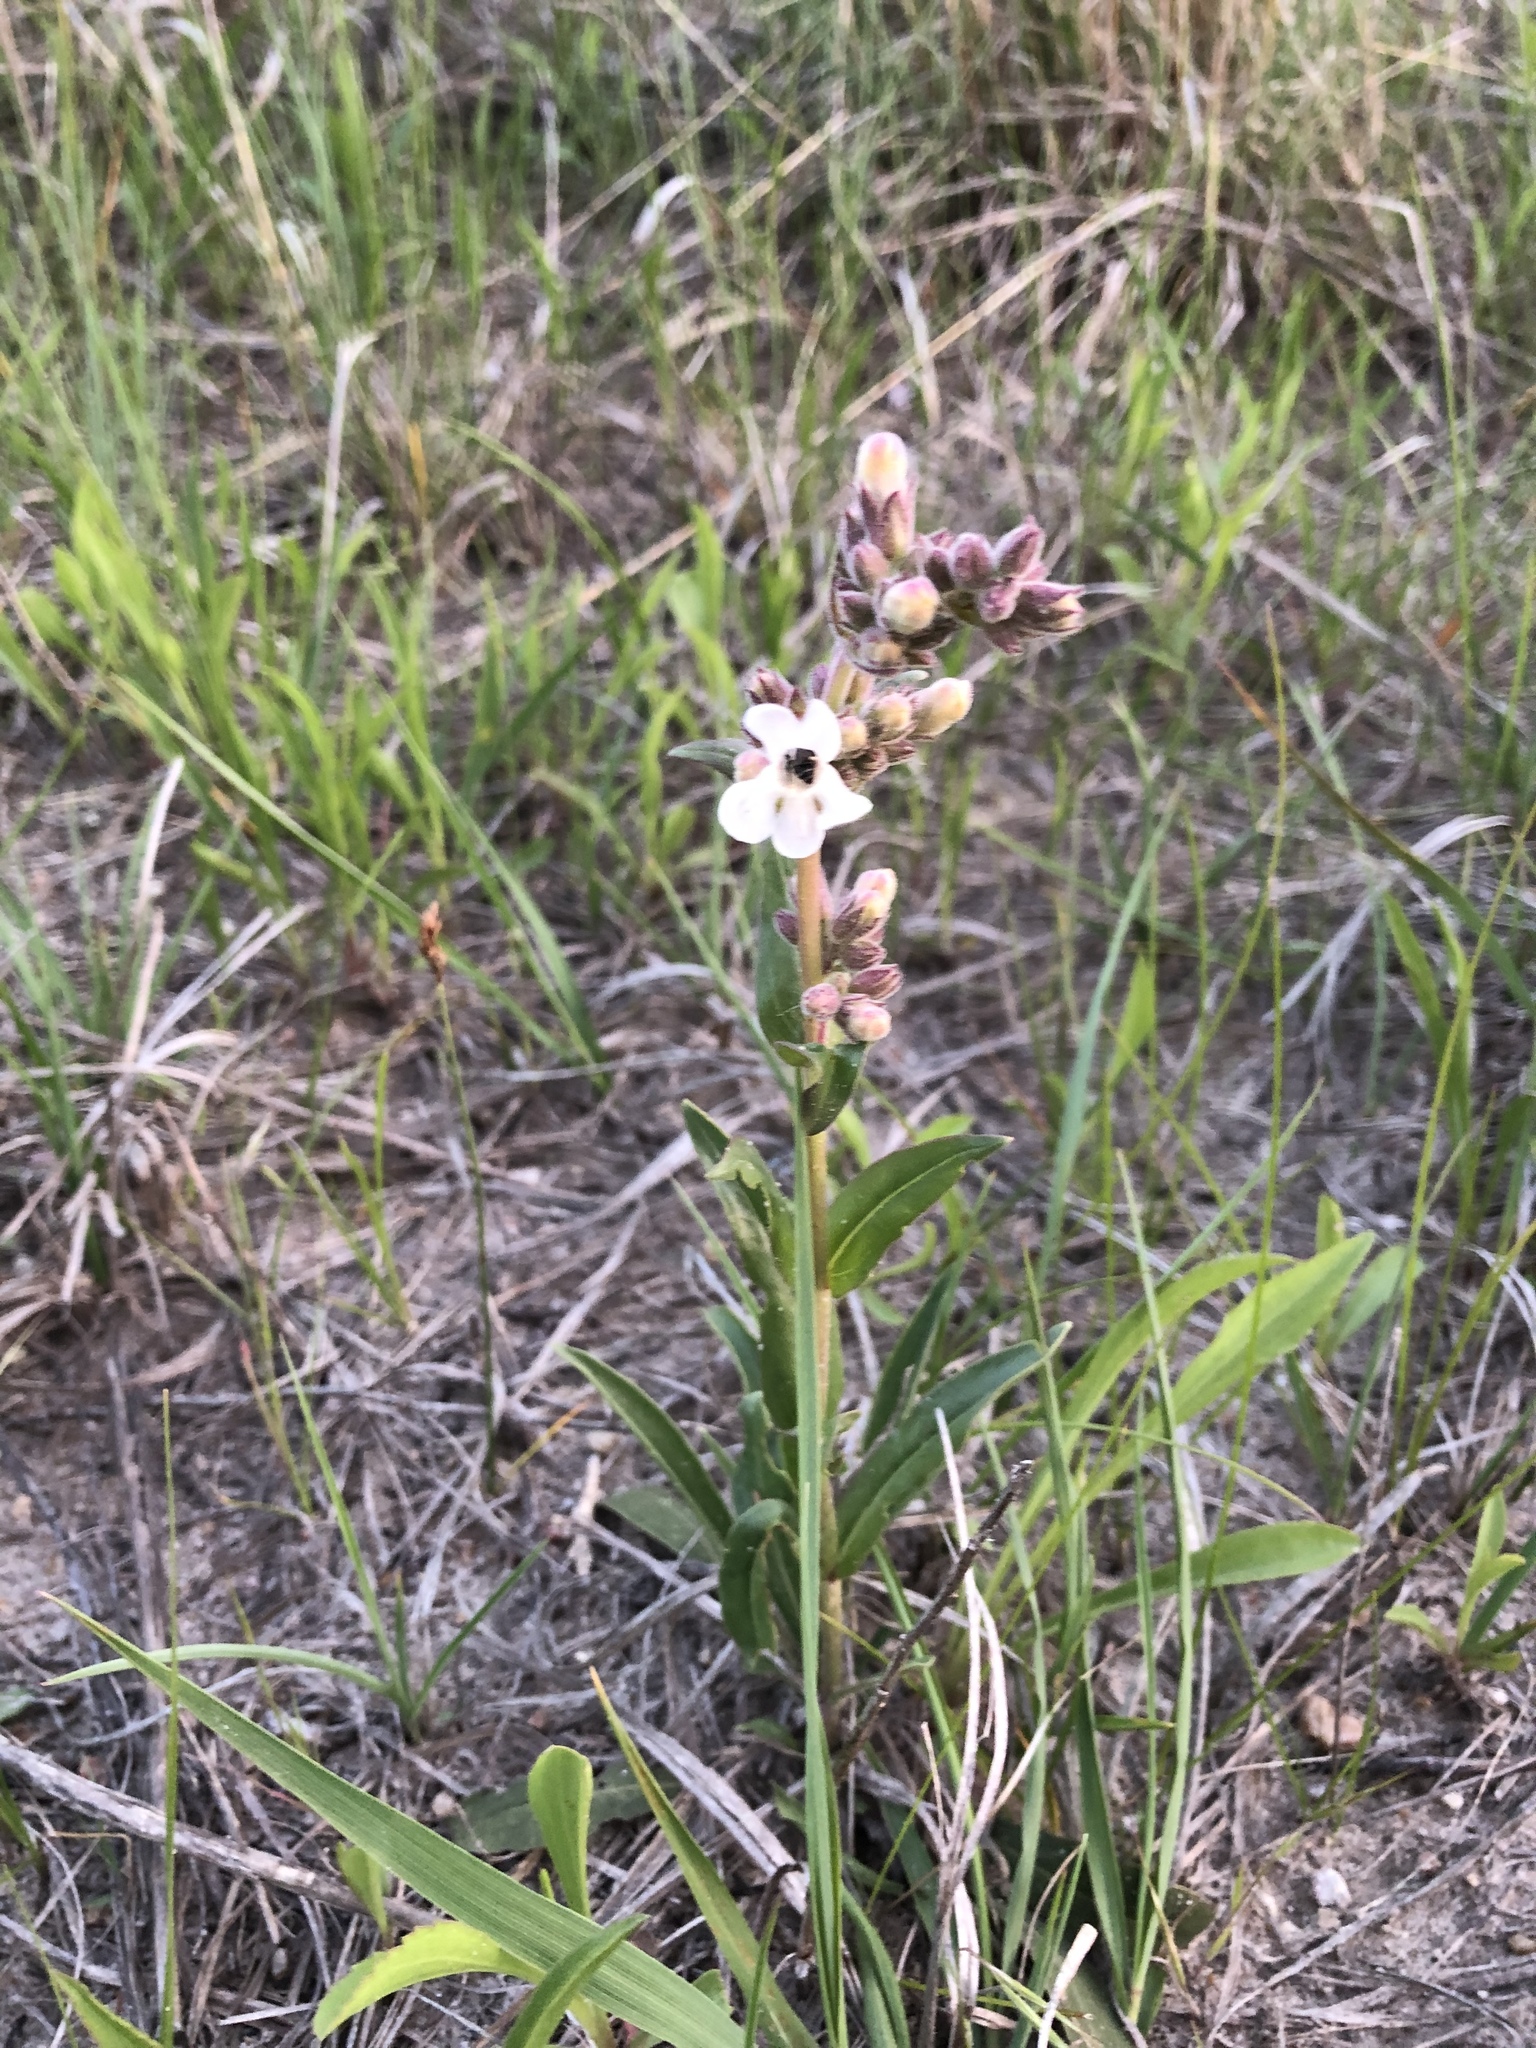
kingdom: Plantae
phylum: Tracheophyta
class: Magnoliopsida
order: Lamiales
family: Plantaginaceae
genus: Penstemon
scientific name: Penstemon albidus
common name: White beardtongue
